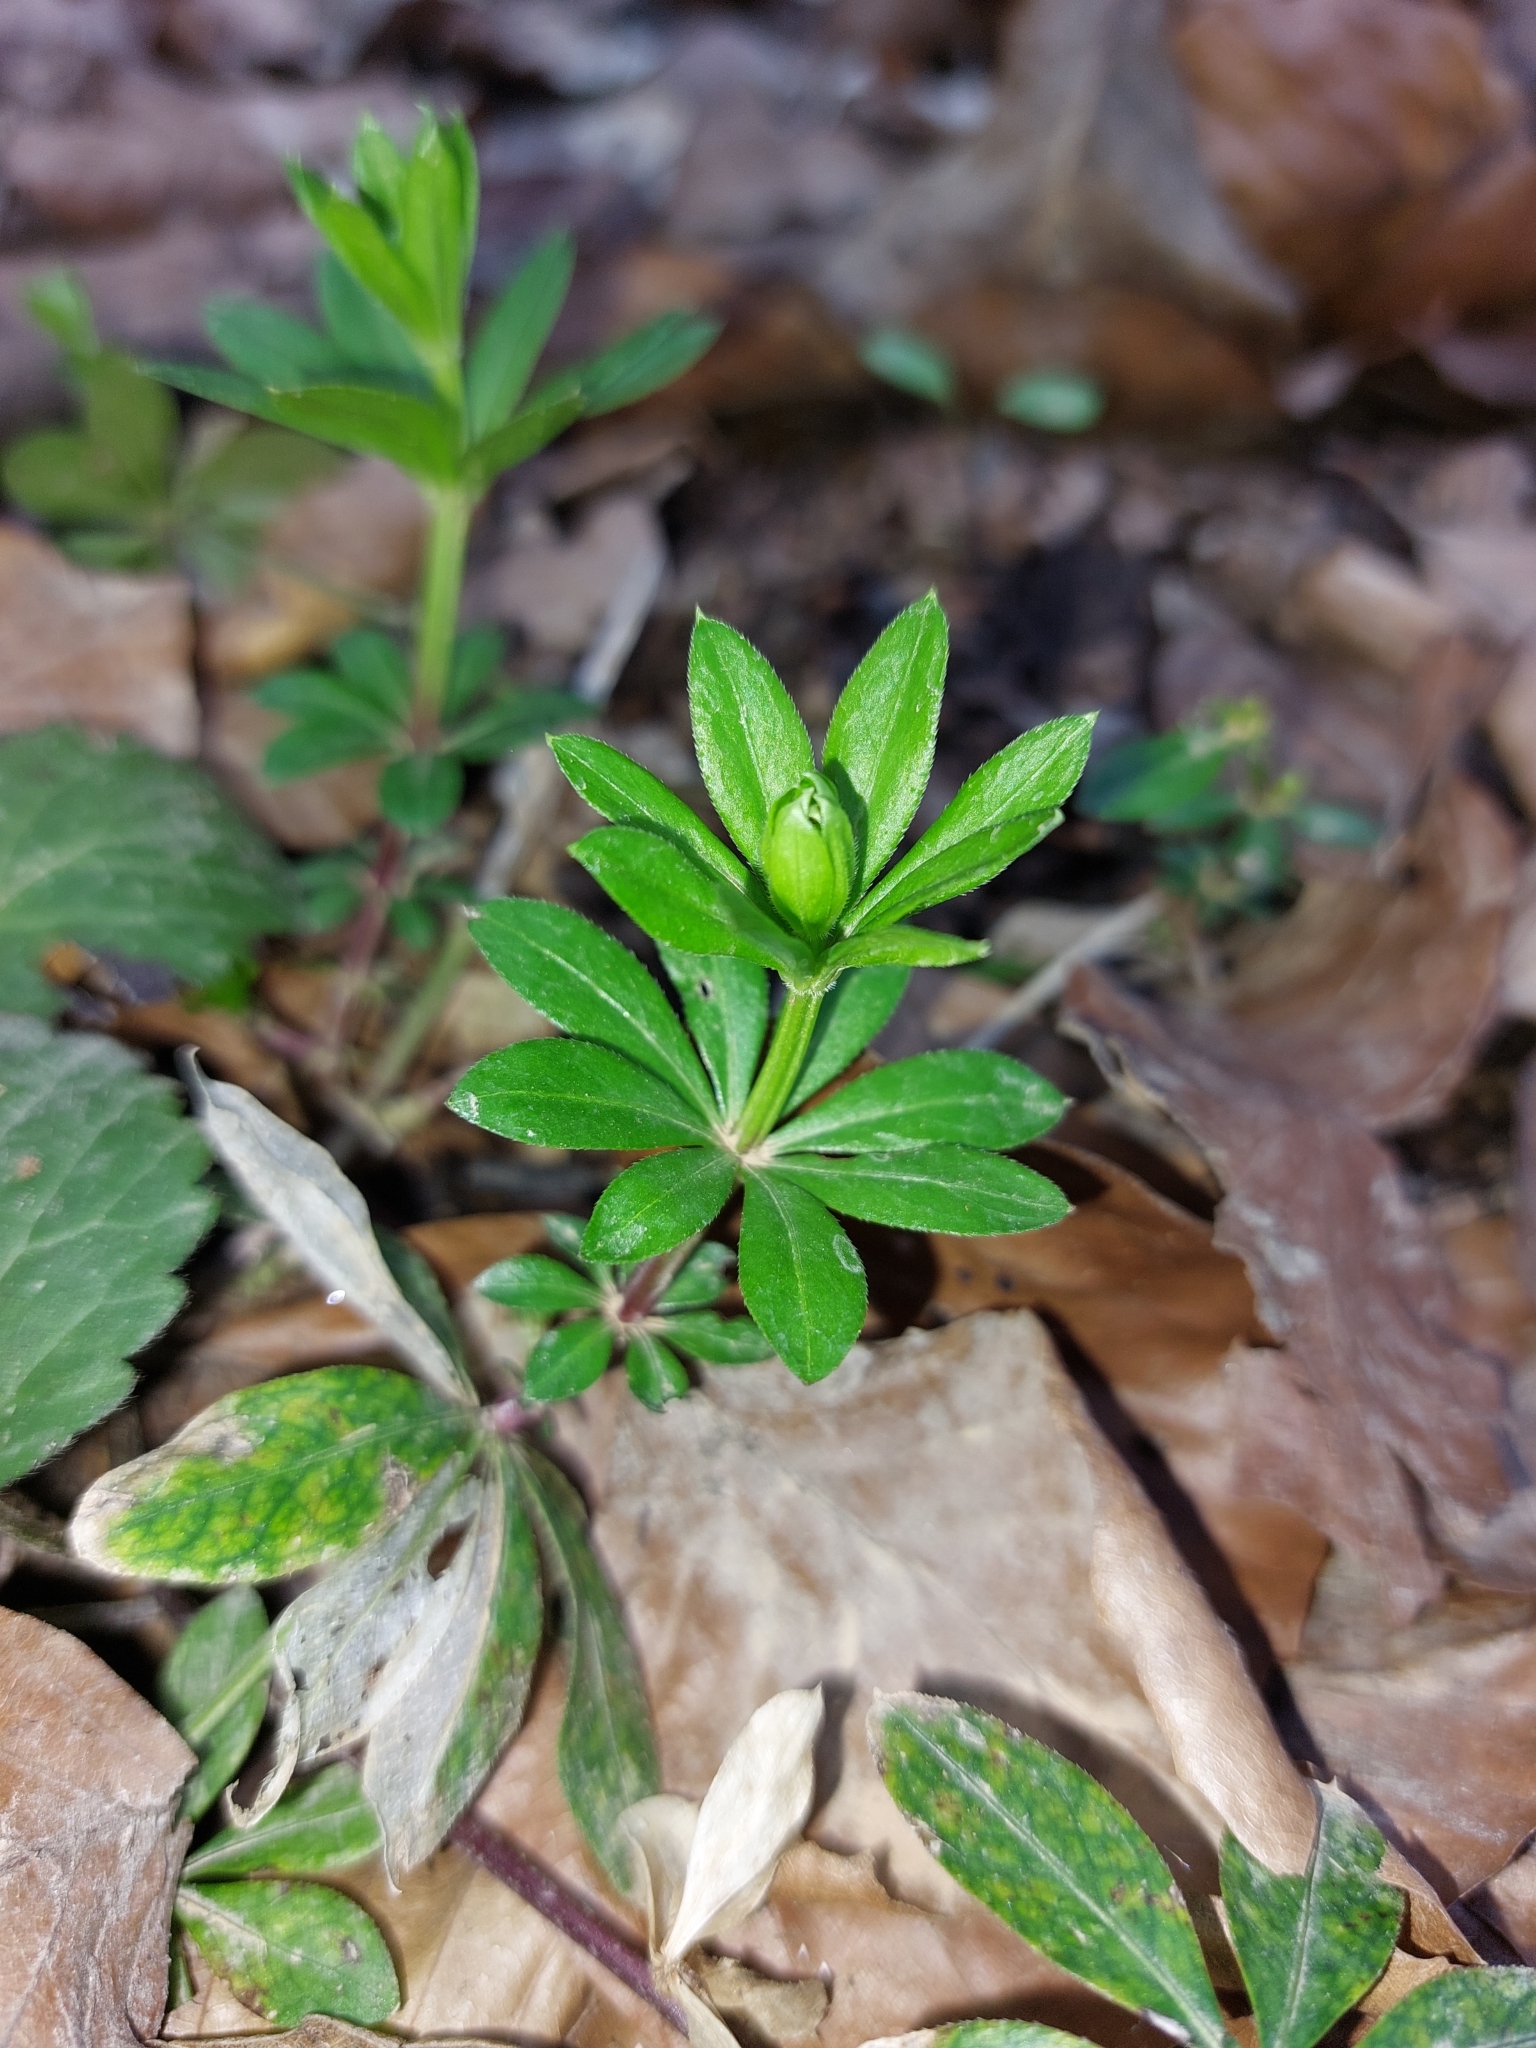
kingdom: Plantae
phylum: Tracheophyta
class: Magnoliopsida
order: Gentianales
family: Rubiaceae
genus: Galium
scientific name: Galium odoratum
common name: Sweet woodruff
